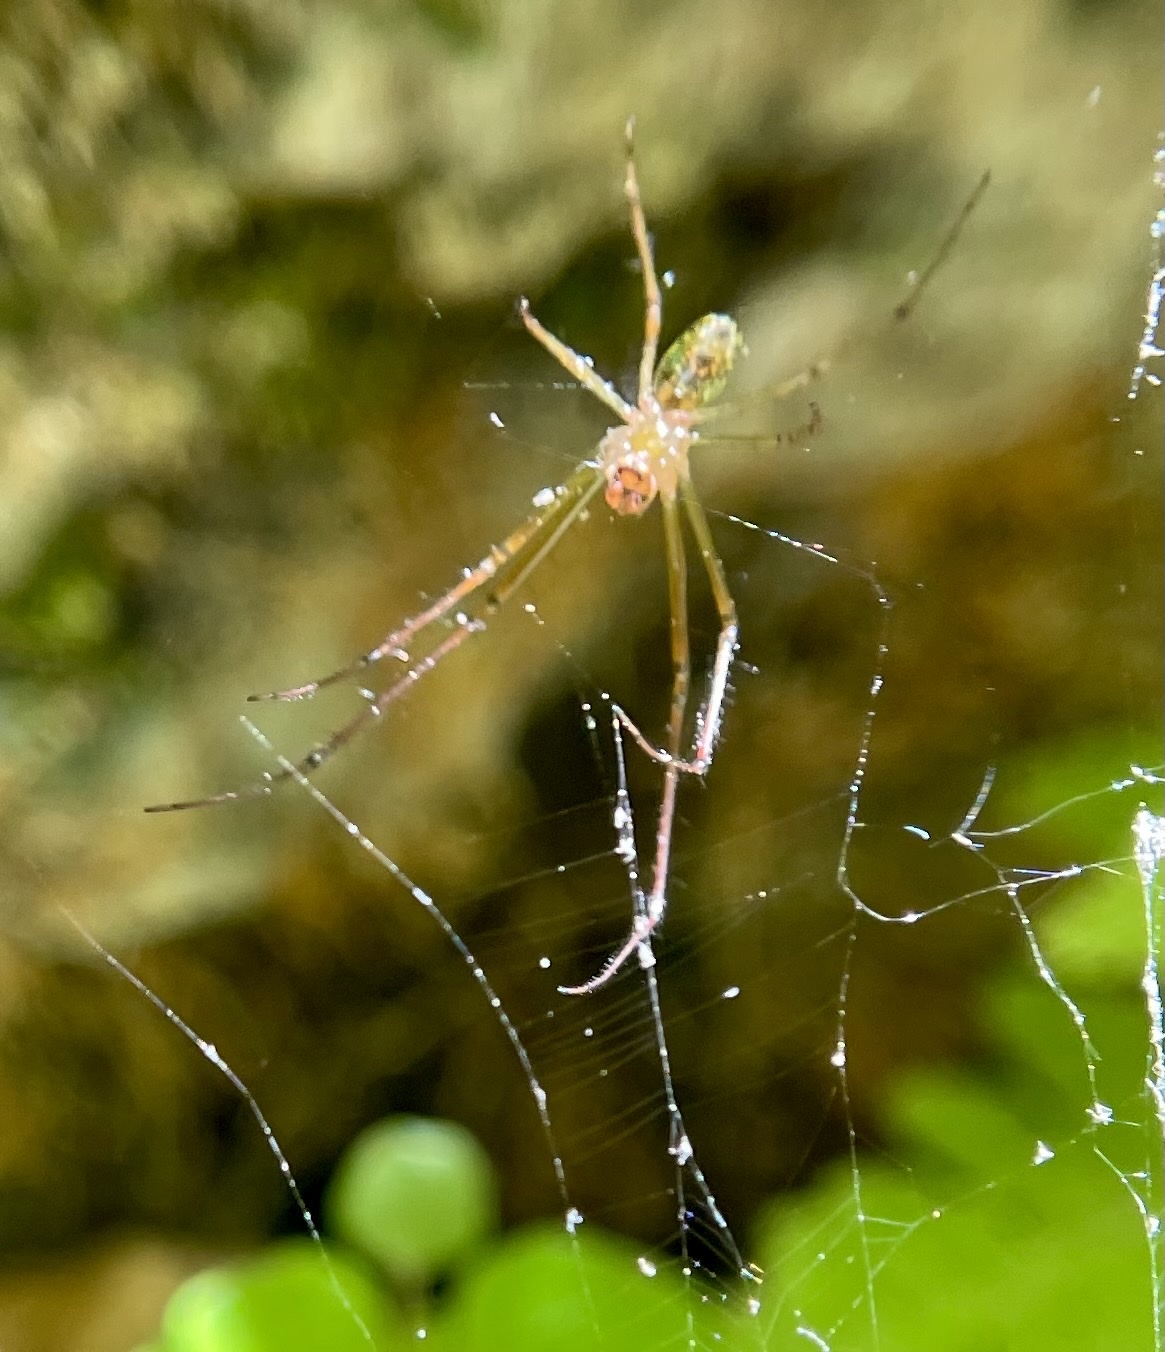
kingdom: Animalia
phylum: Arthropoda
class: Arachnida
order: Araneae
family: Tetragnathidae
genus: Leucauge
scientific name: Leucauge venusta
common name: Longjawed orb weavers
